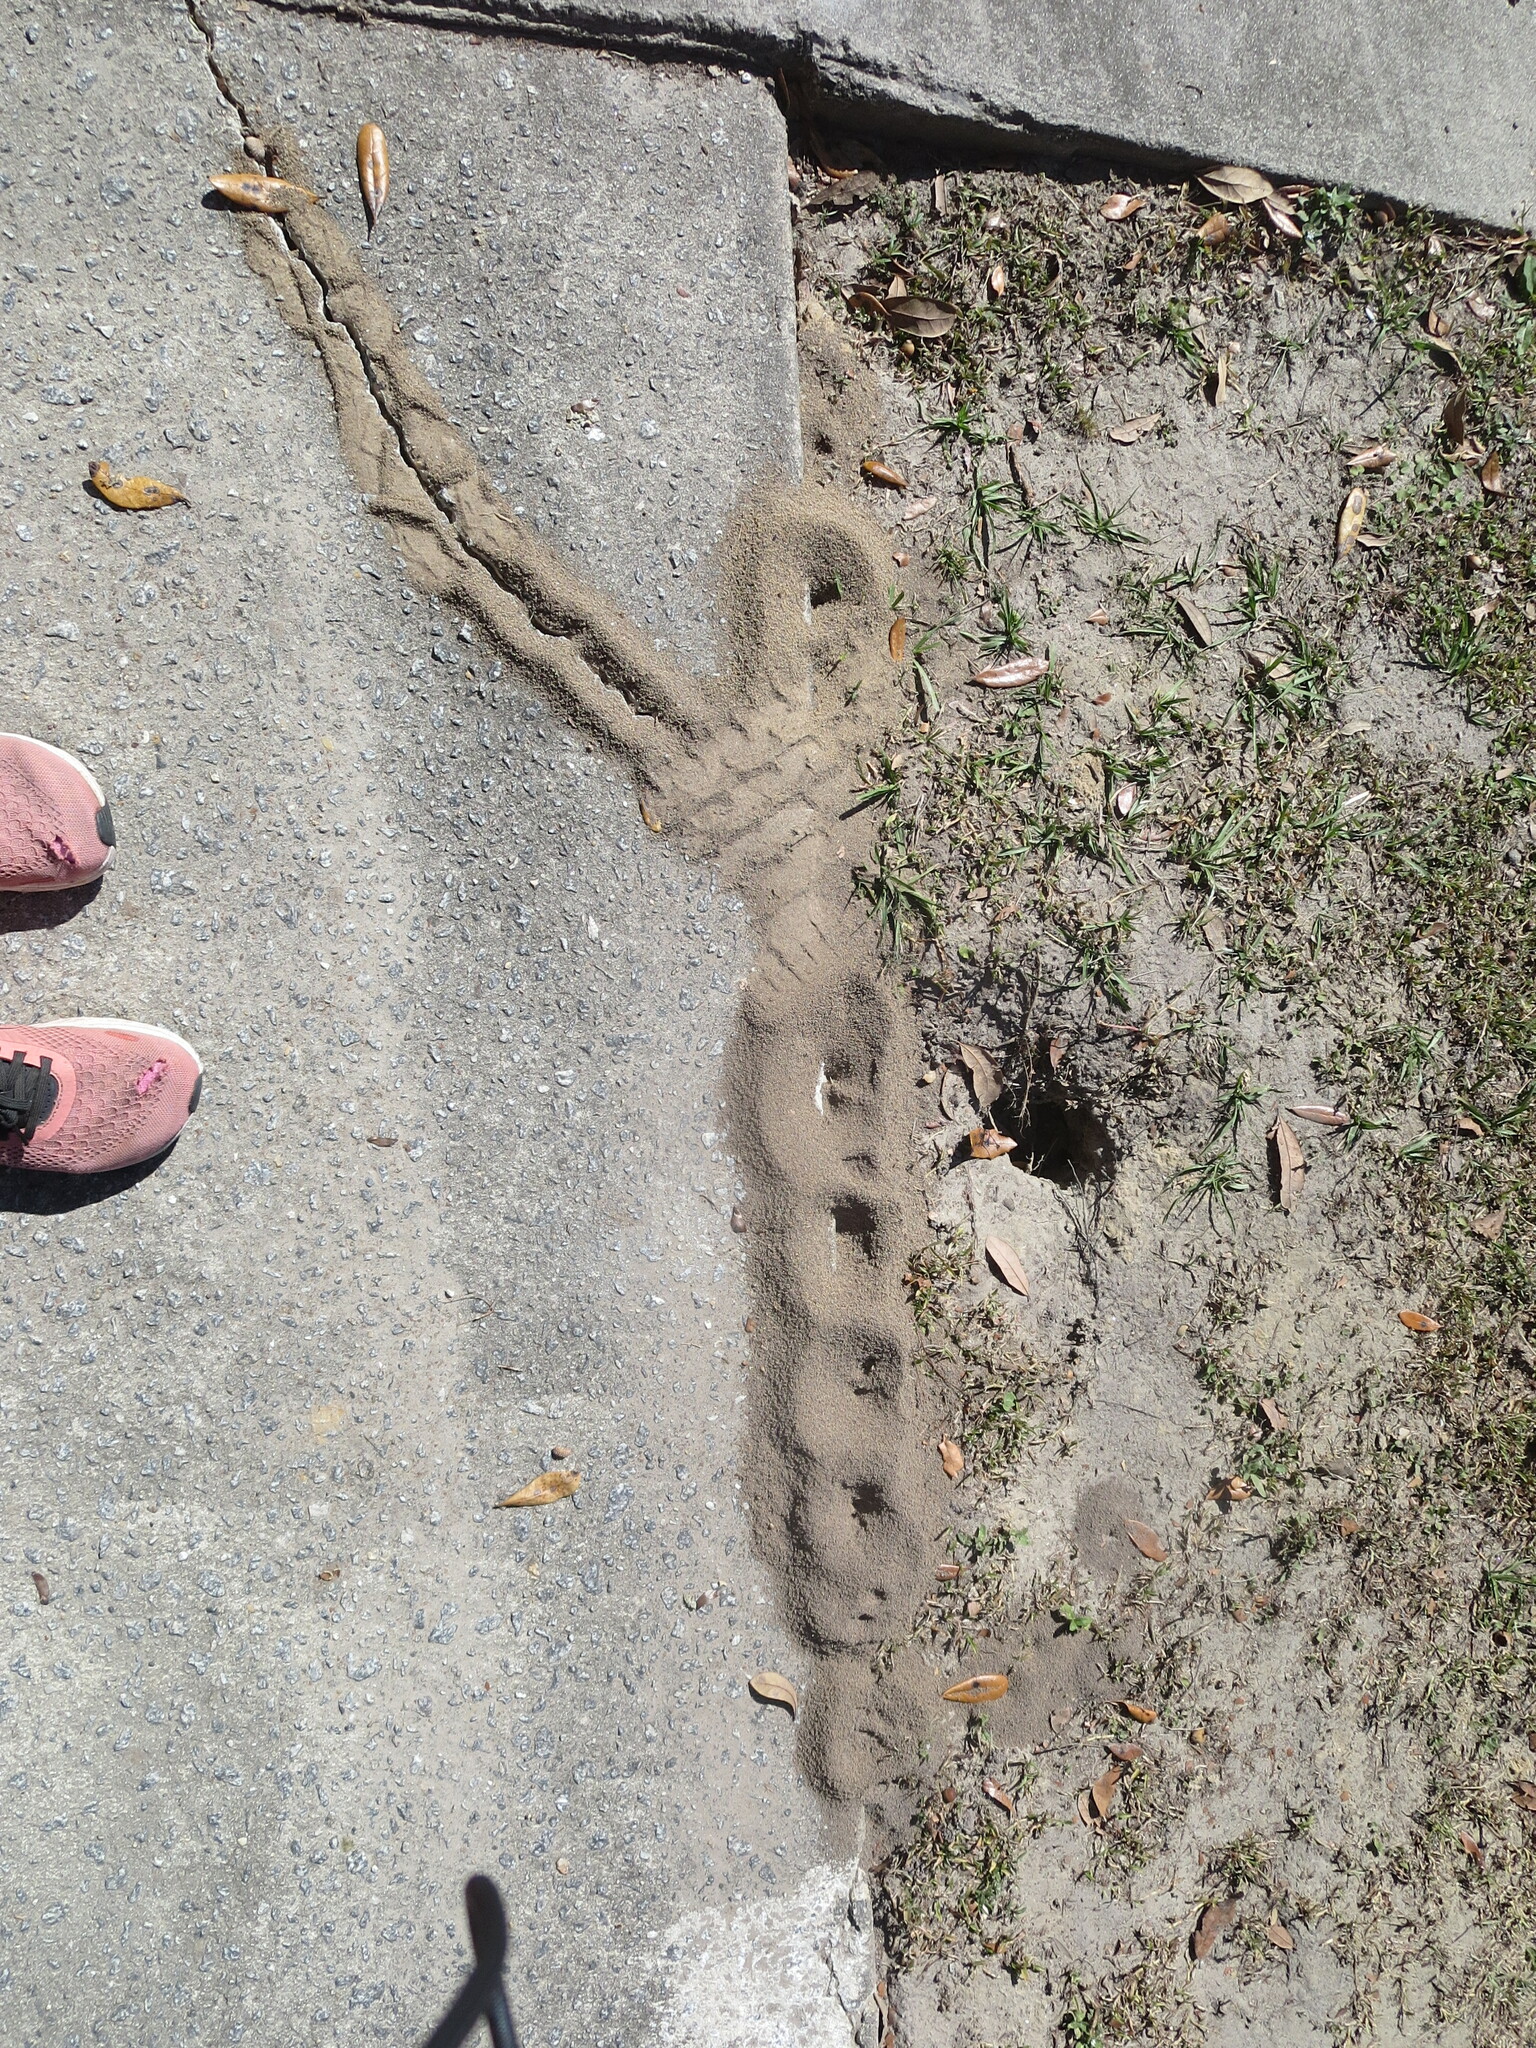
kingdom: Animalia
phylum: Arthropoda
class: Insecta
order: Hymenoptera
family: Formicidae
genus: Solenopsis
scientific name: Solenopsis invicta
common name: Red imported fire ant
